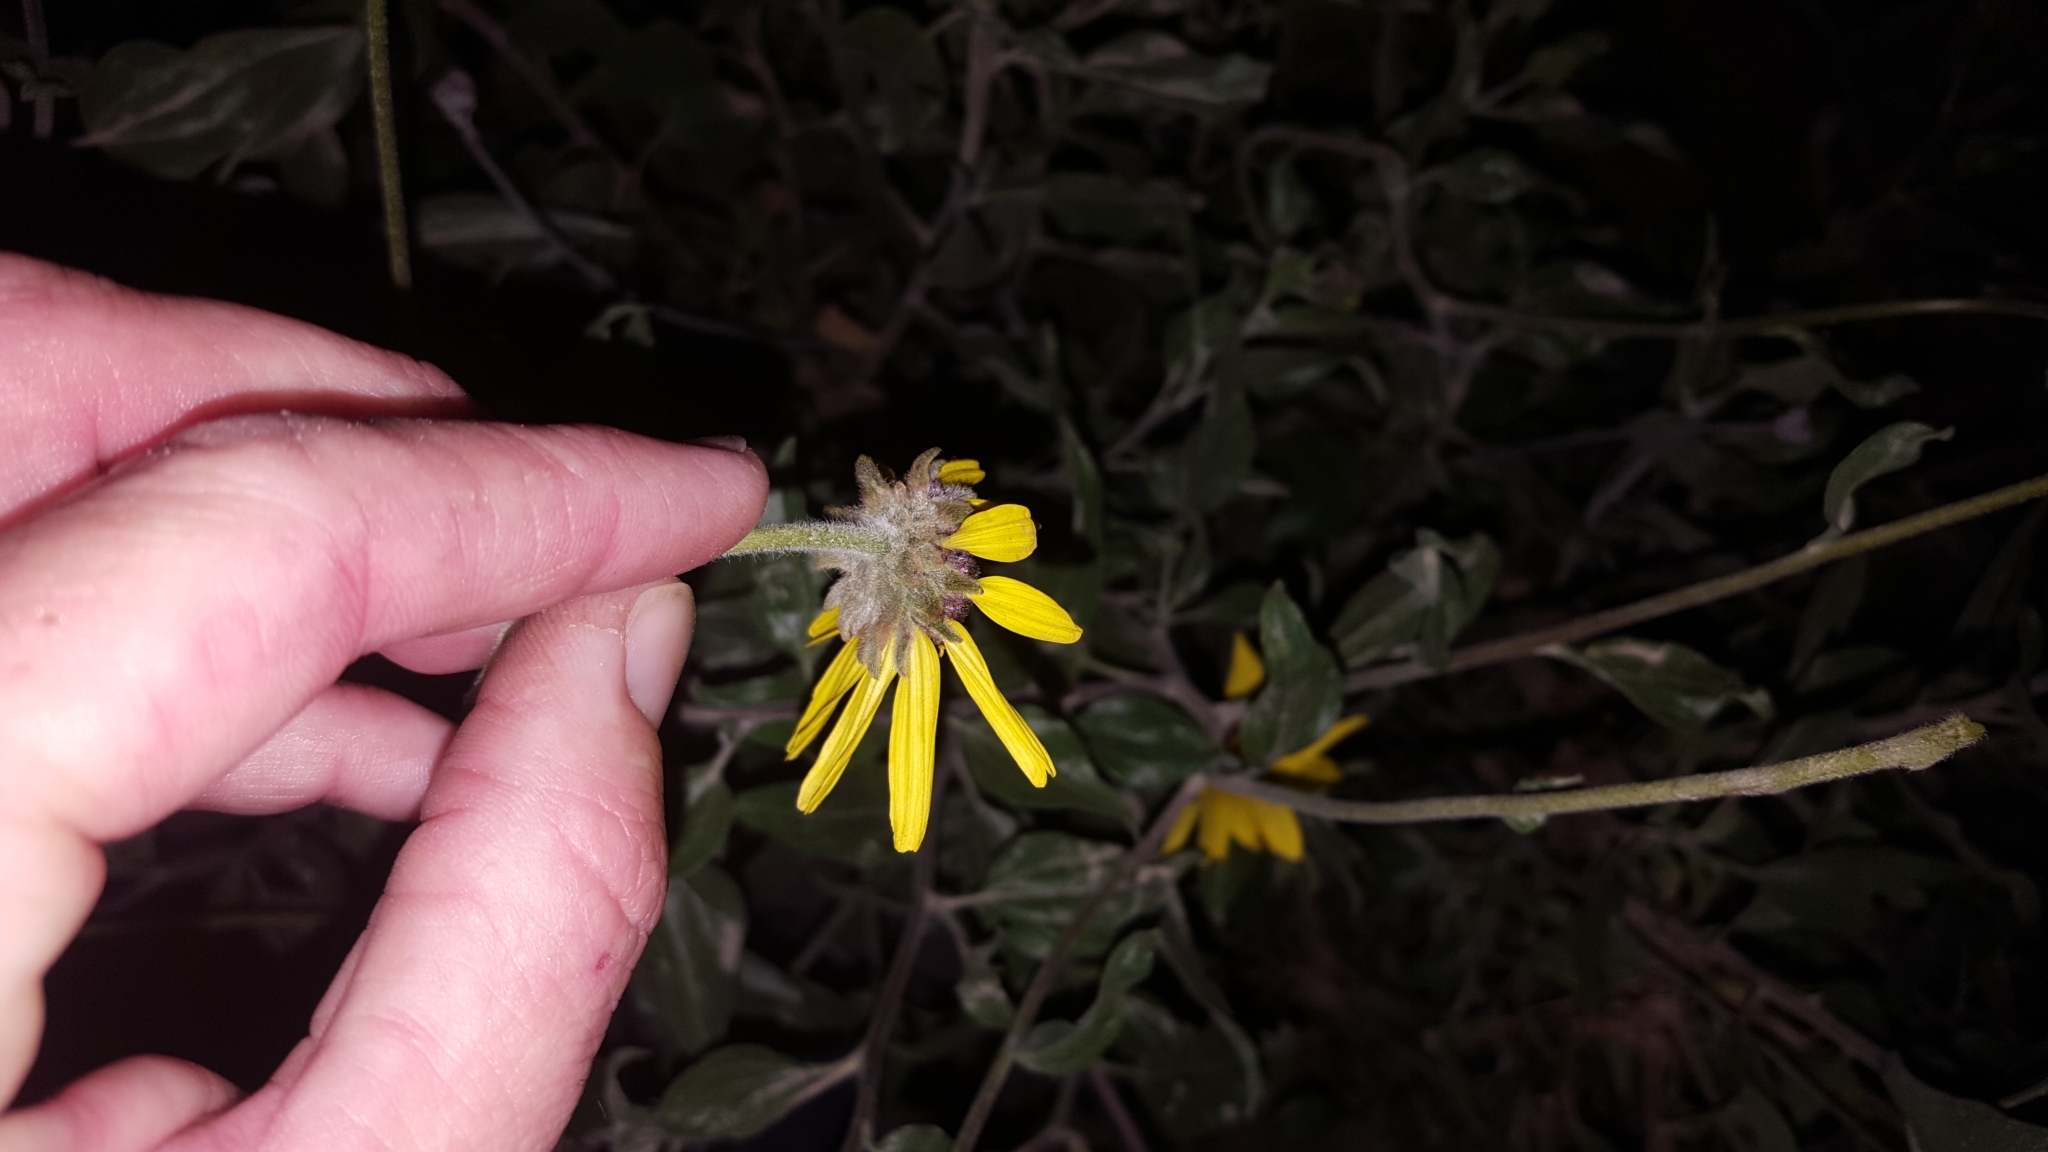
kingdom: Plantae
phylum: Tracheophyta
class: Magnoliopsida
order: Asterales
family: Asteraceae
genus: Encelia
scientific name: Encelia californica
